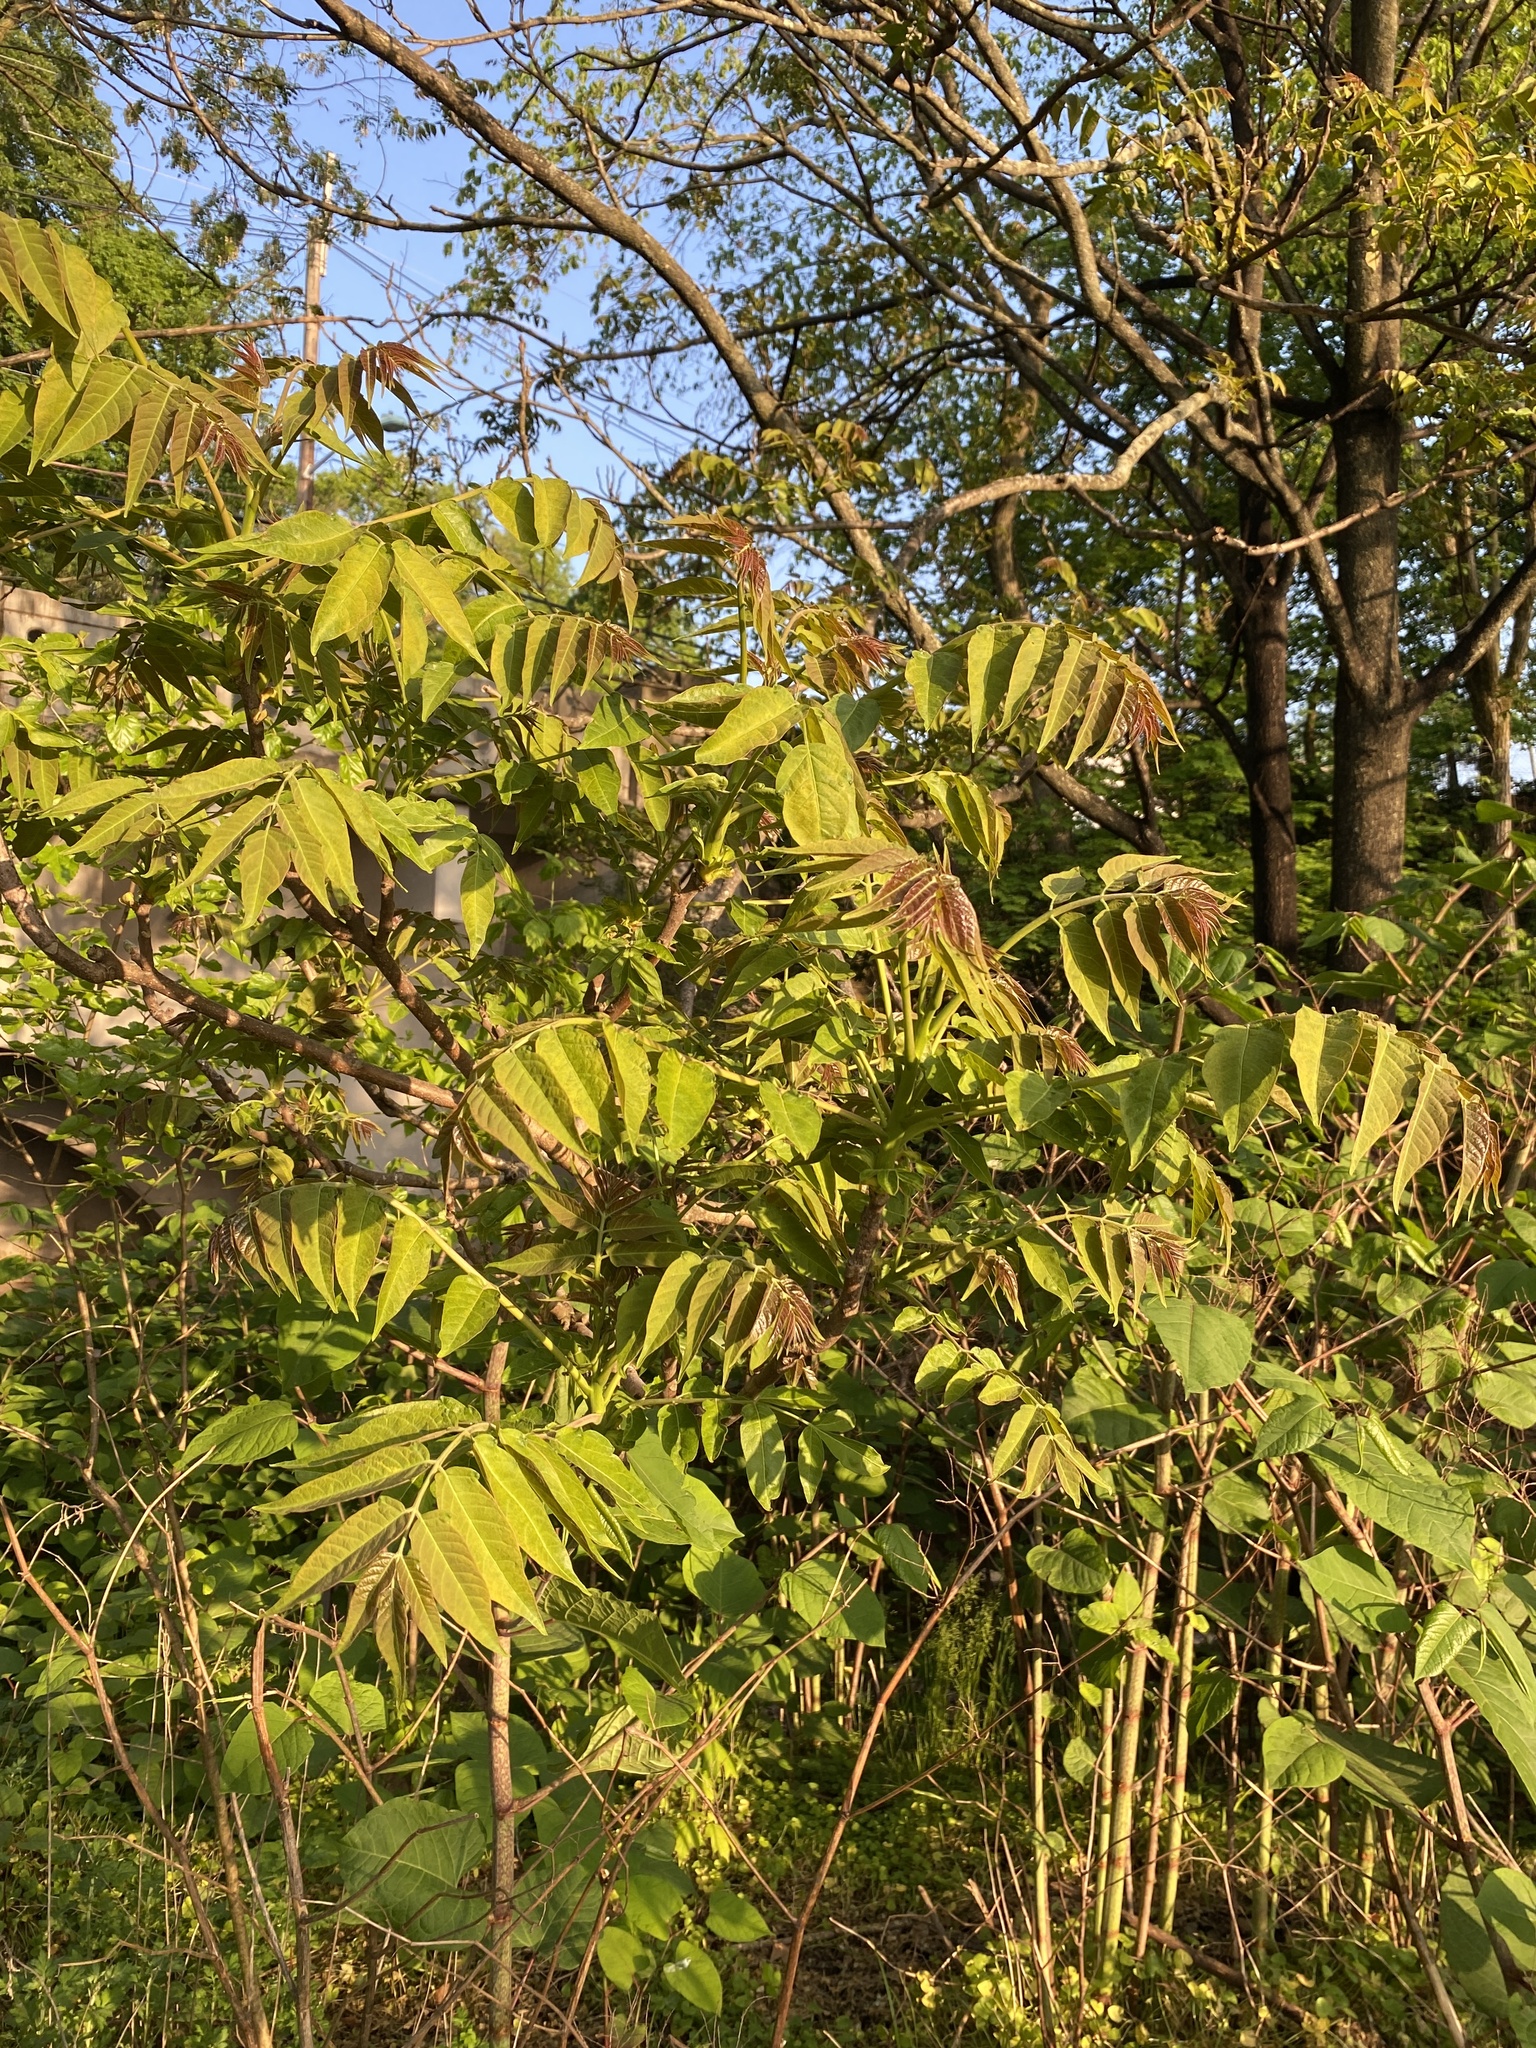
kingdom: Plantae
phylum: Tracheophyta
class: Magnoliopsida
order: Sapindales
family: Simaroubaceae
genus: Ailanthus
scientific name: Ailanthus altissima
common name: Tree-of-heaven
